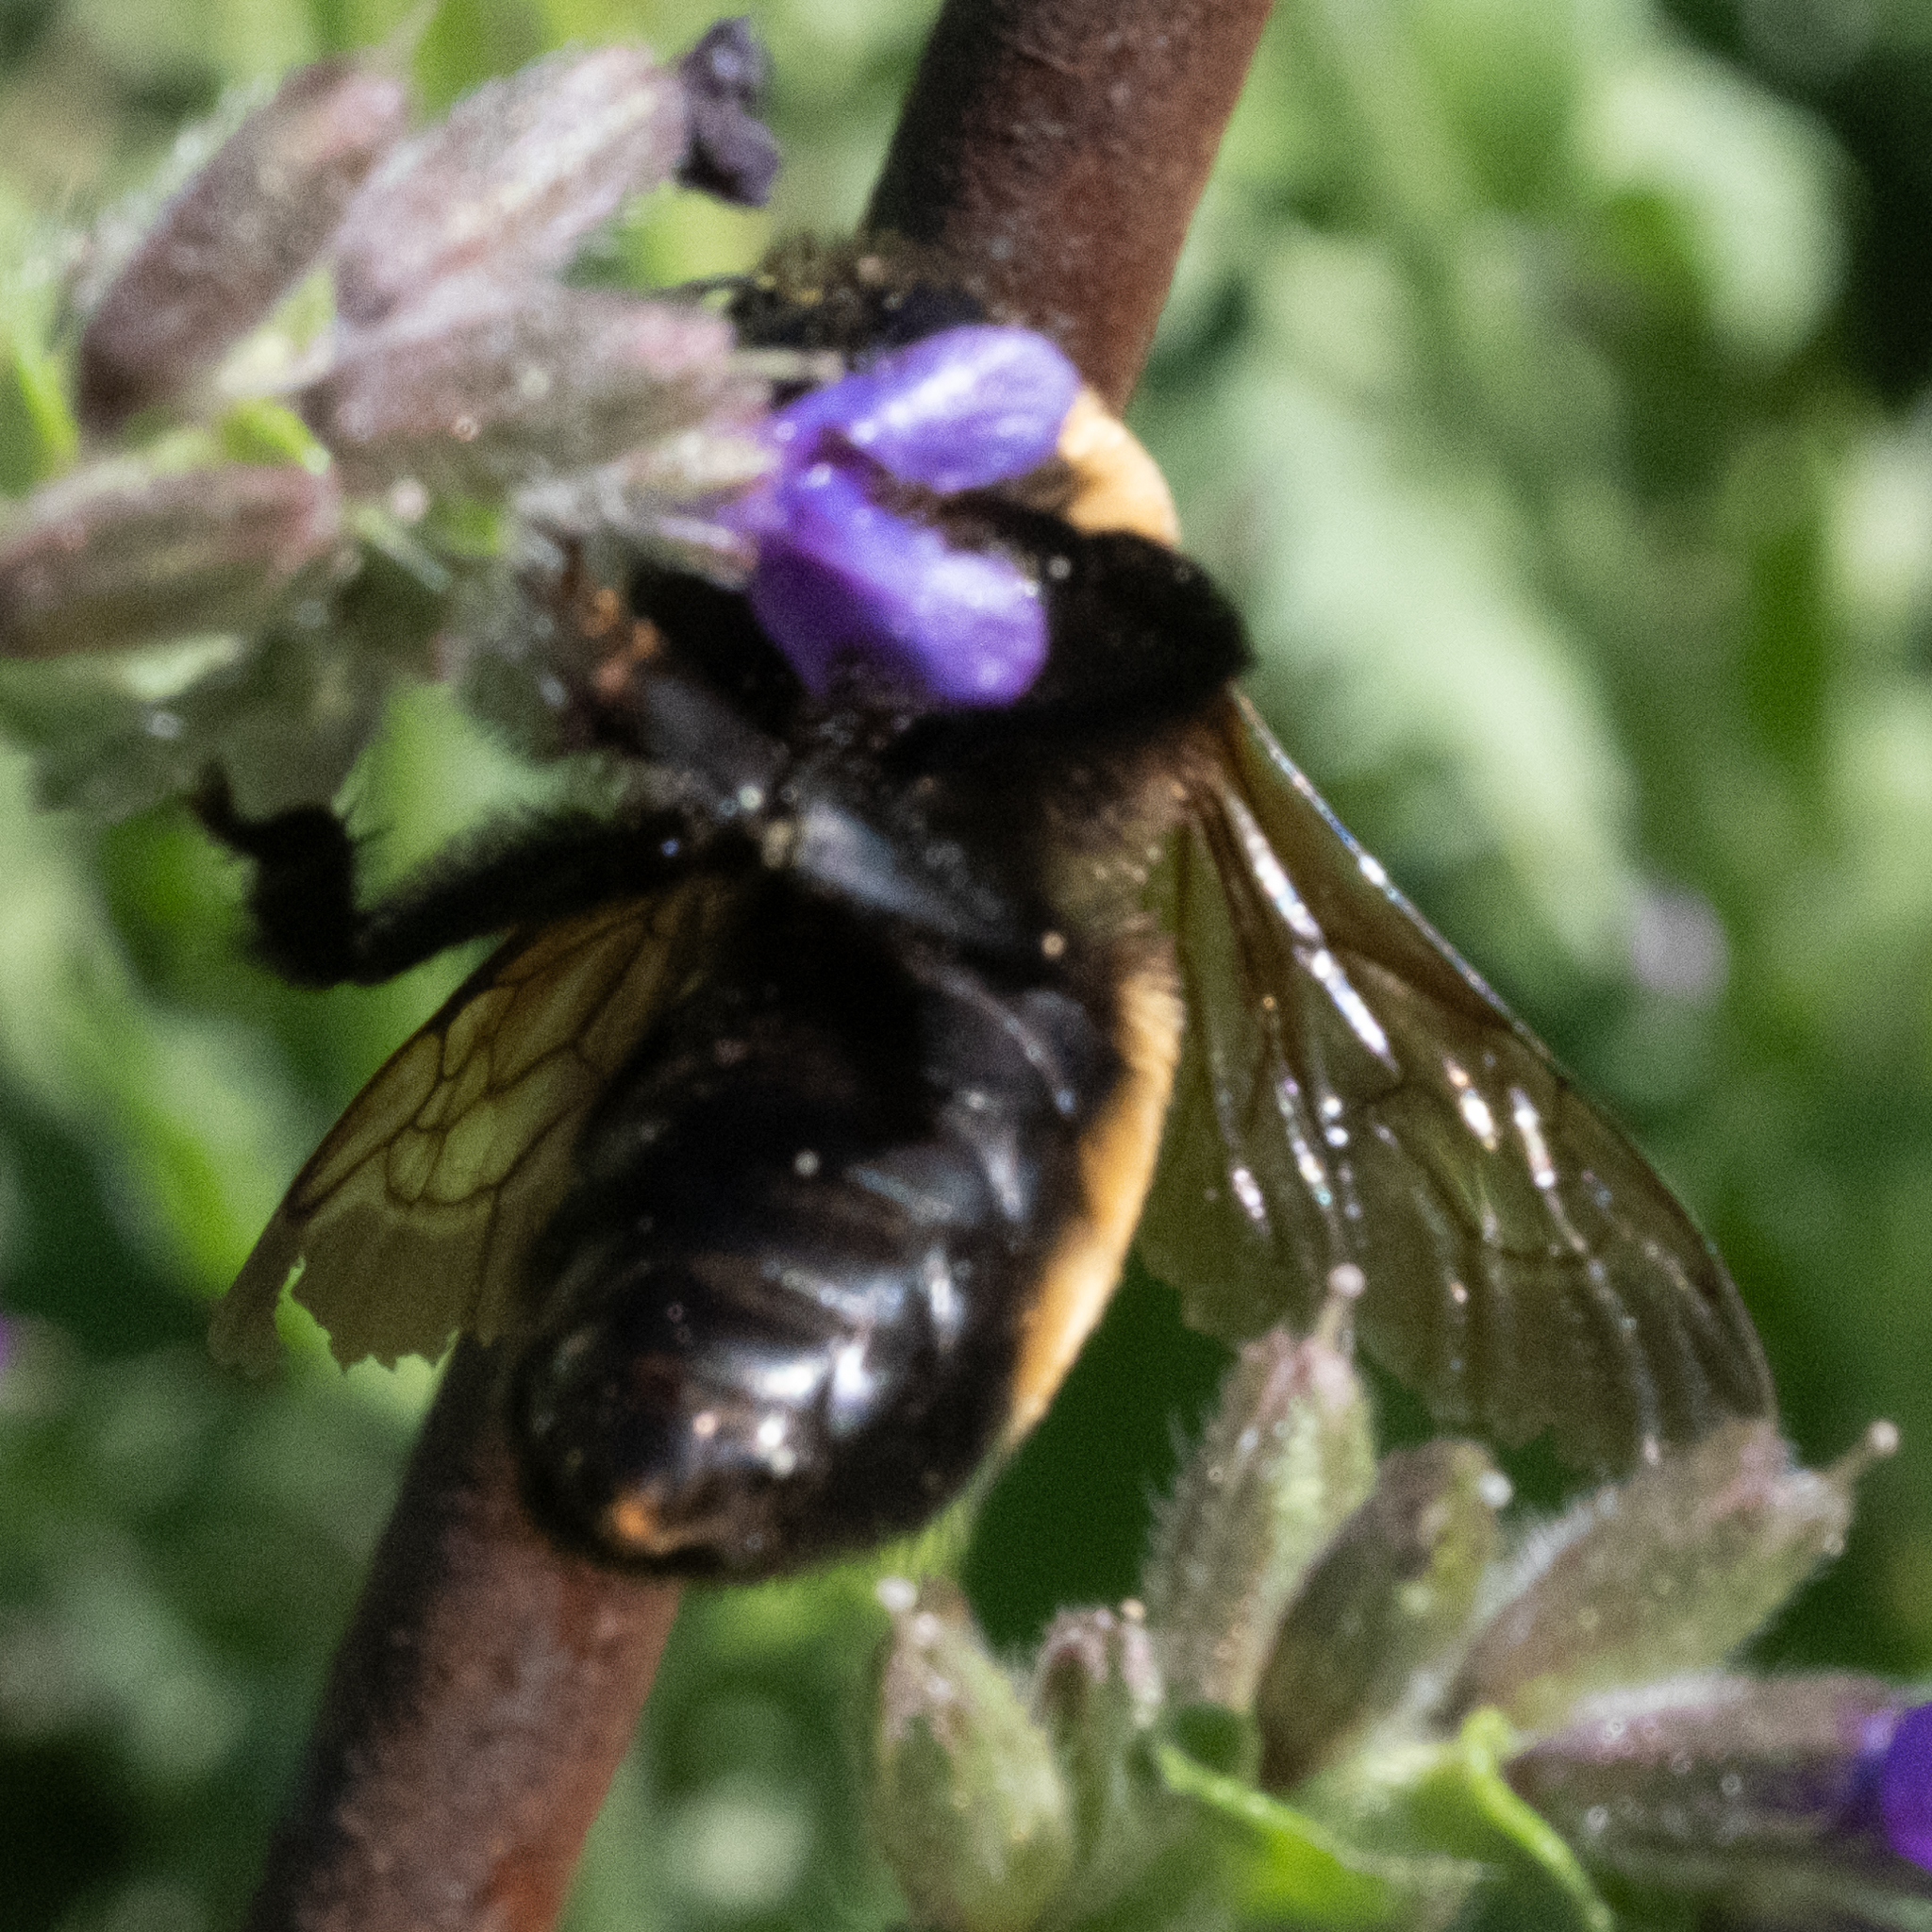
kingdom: Animalia
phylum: Arthropoda
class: Insecta
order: Hymenoptera
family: Apidae
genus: Bombus
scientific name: Bombus nevadensis
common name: Nevada bumble bee
